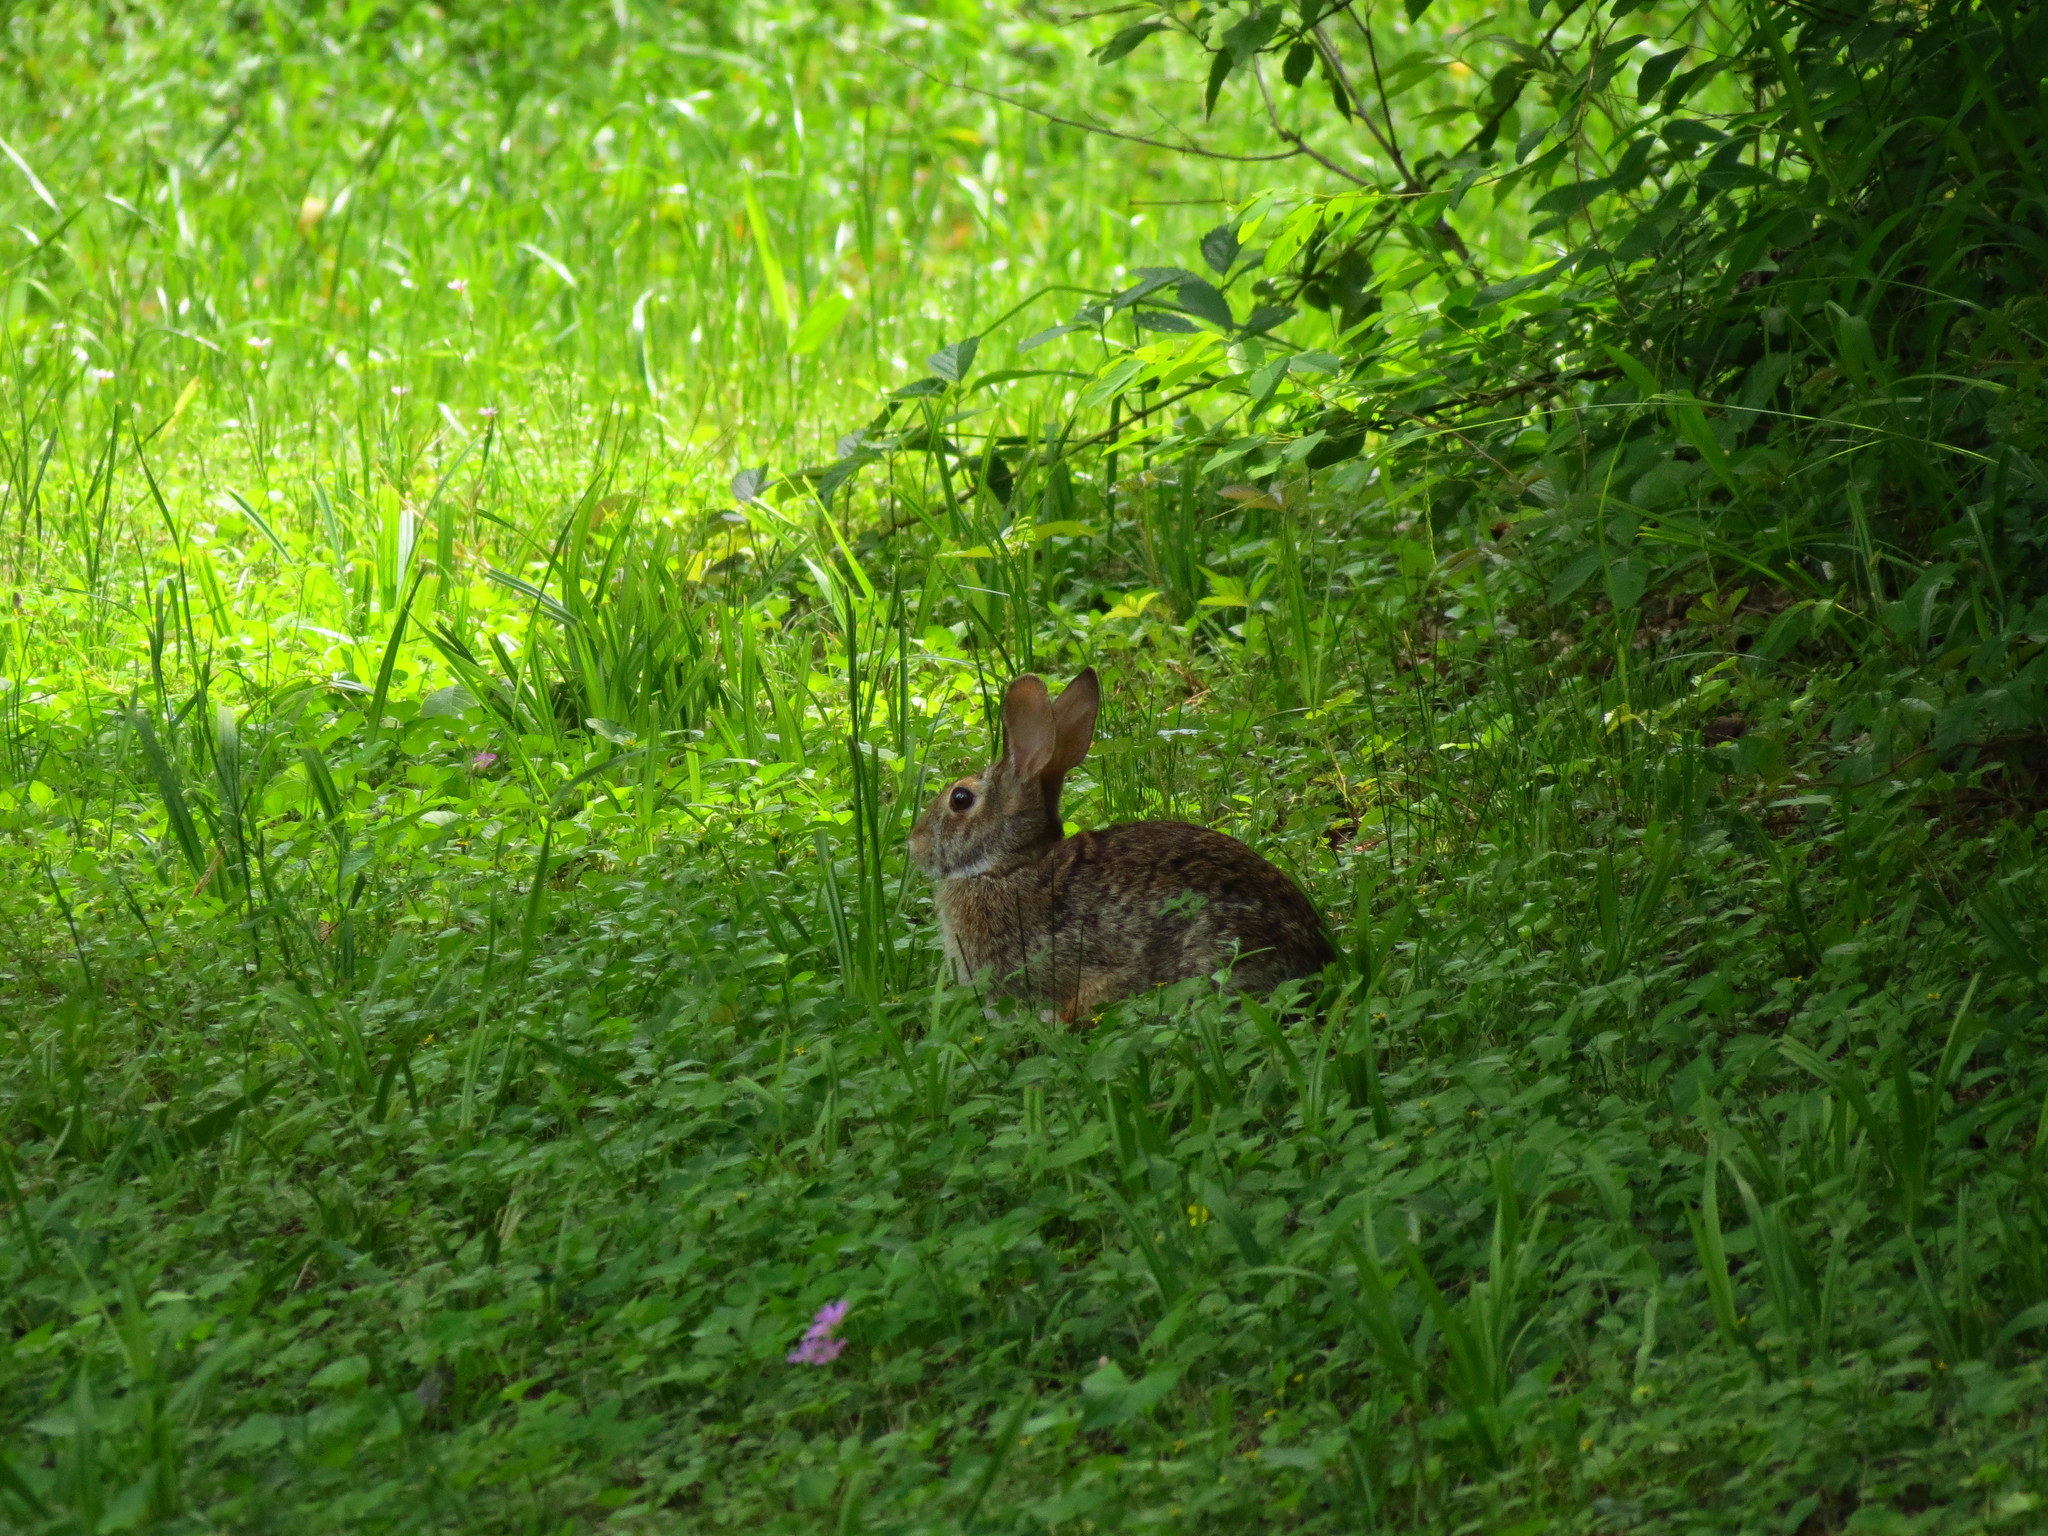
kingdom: Animalia
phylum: Chordata
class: Mammalia
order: Lagomorpha
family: Leporidae
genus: Sylvilagus
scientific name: Sylvilagus floridanus
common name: Eastern cottontail
